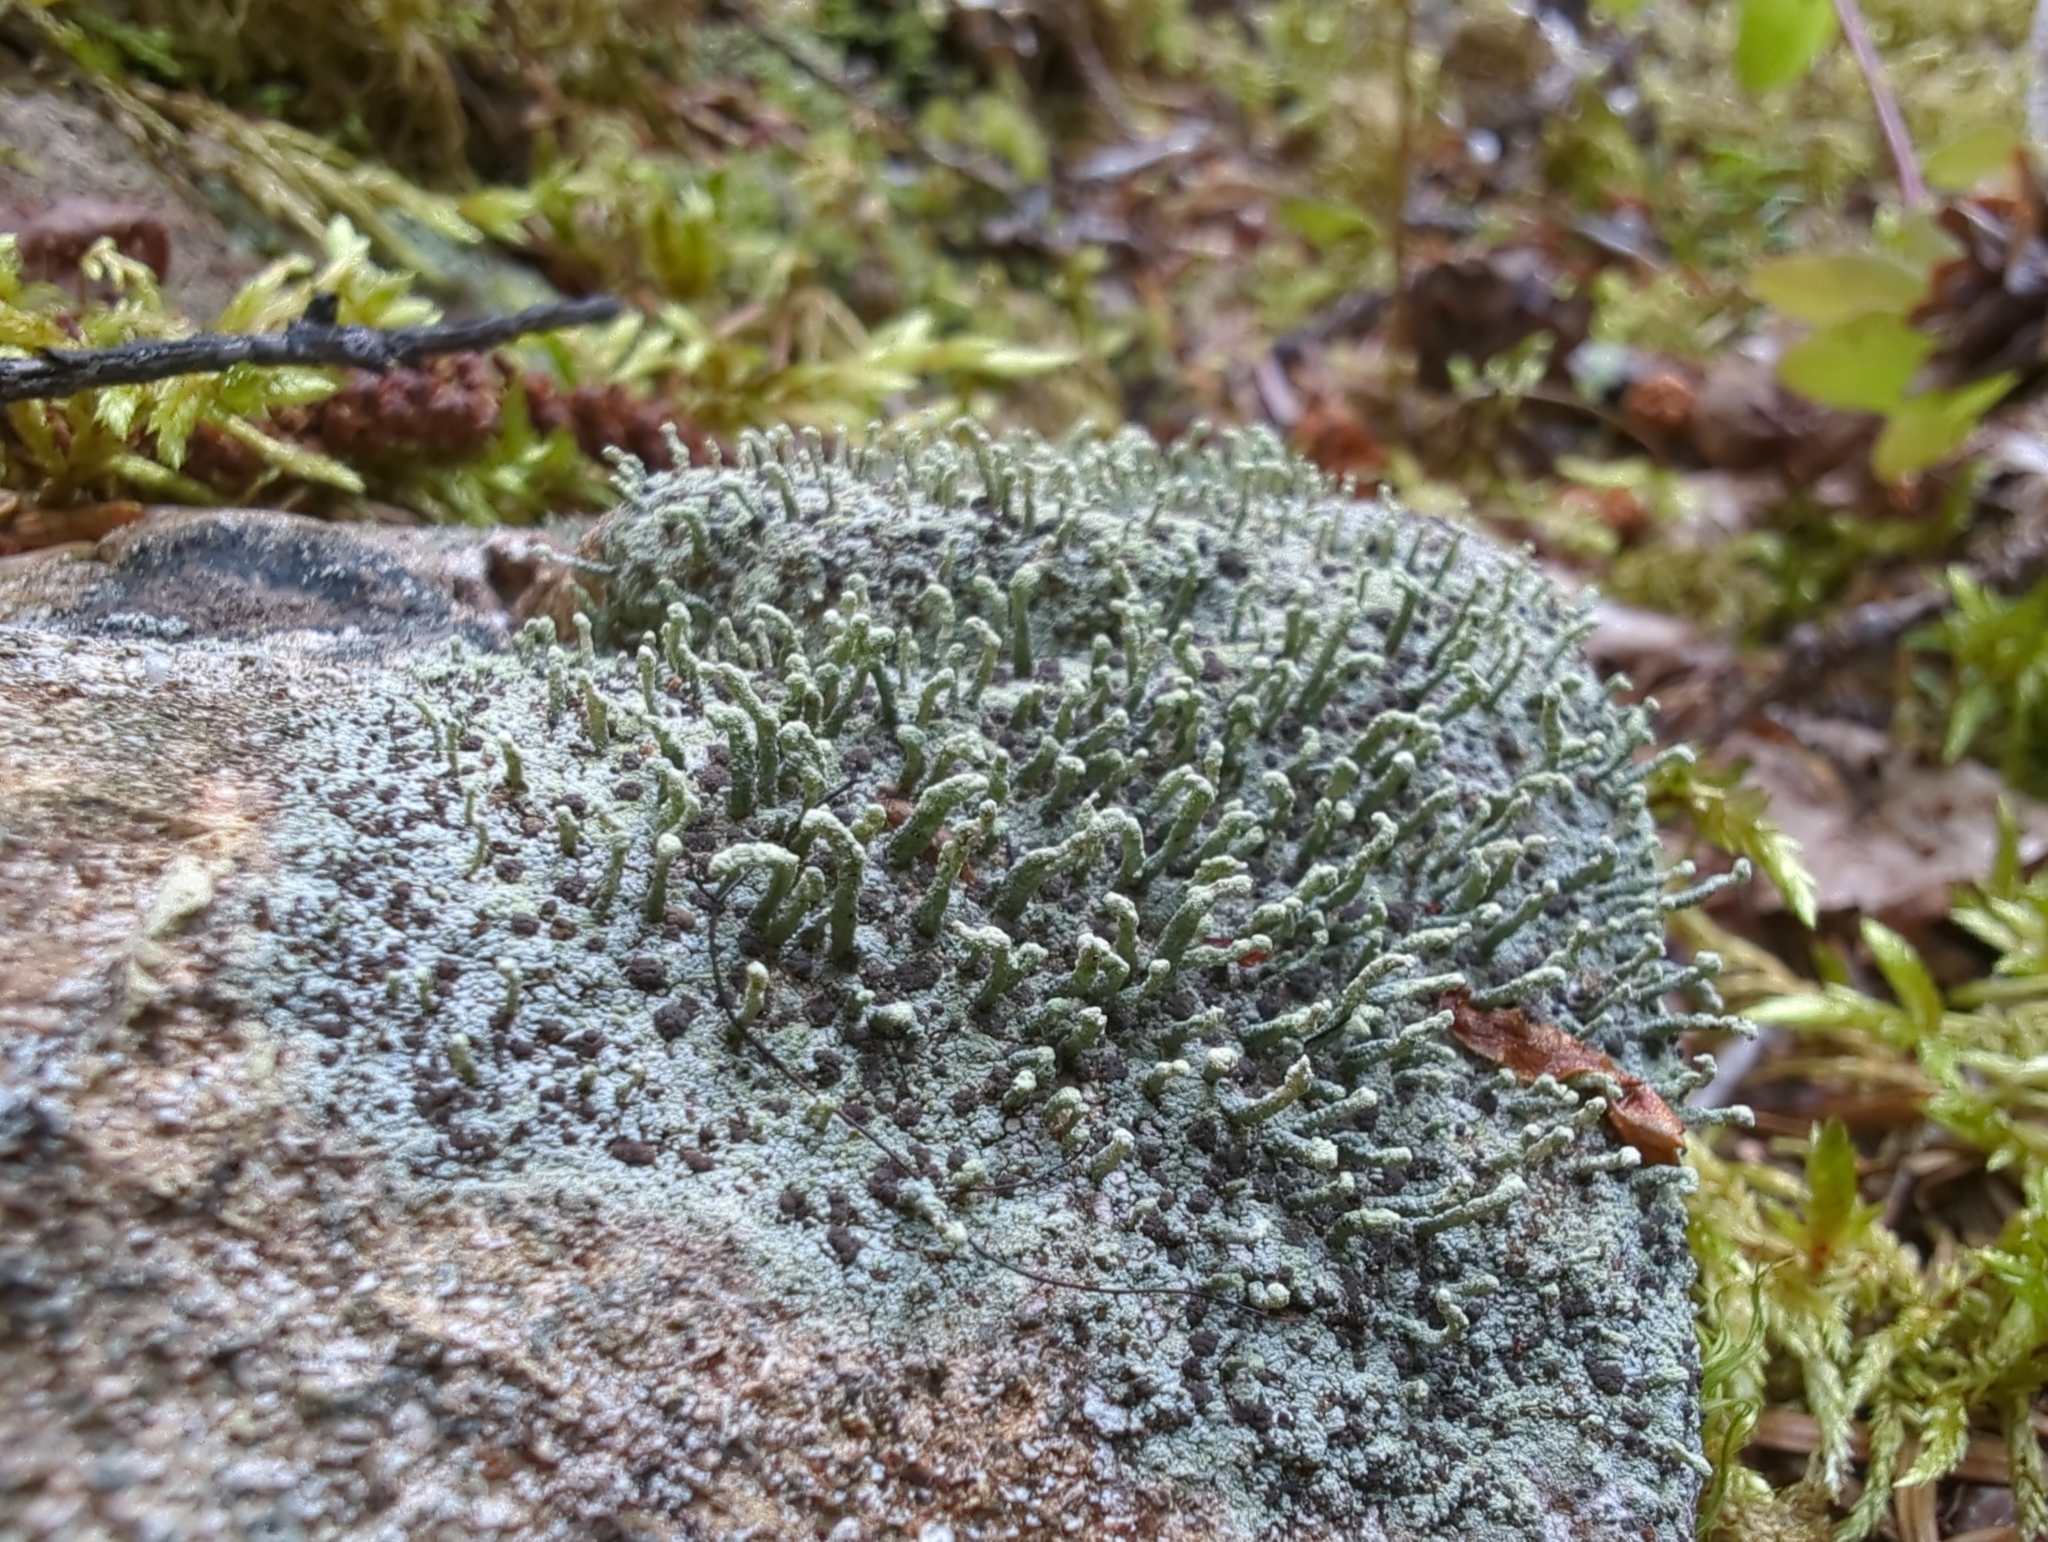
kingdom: Fungi
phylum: Ascomycota
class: Lecanoromycetes
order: Lecanorales
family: Cladoniaceae
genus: Pilophorus
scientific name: Pilophorus cereolus
